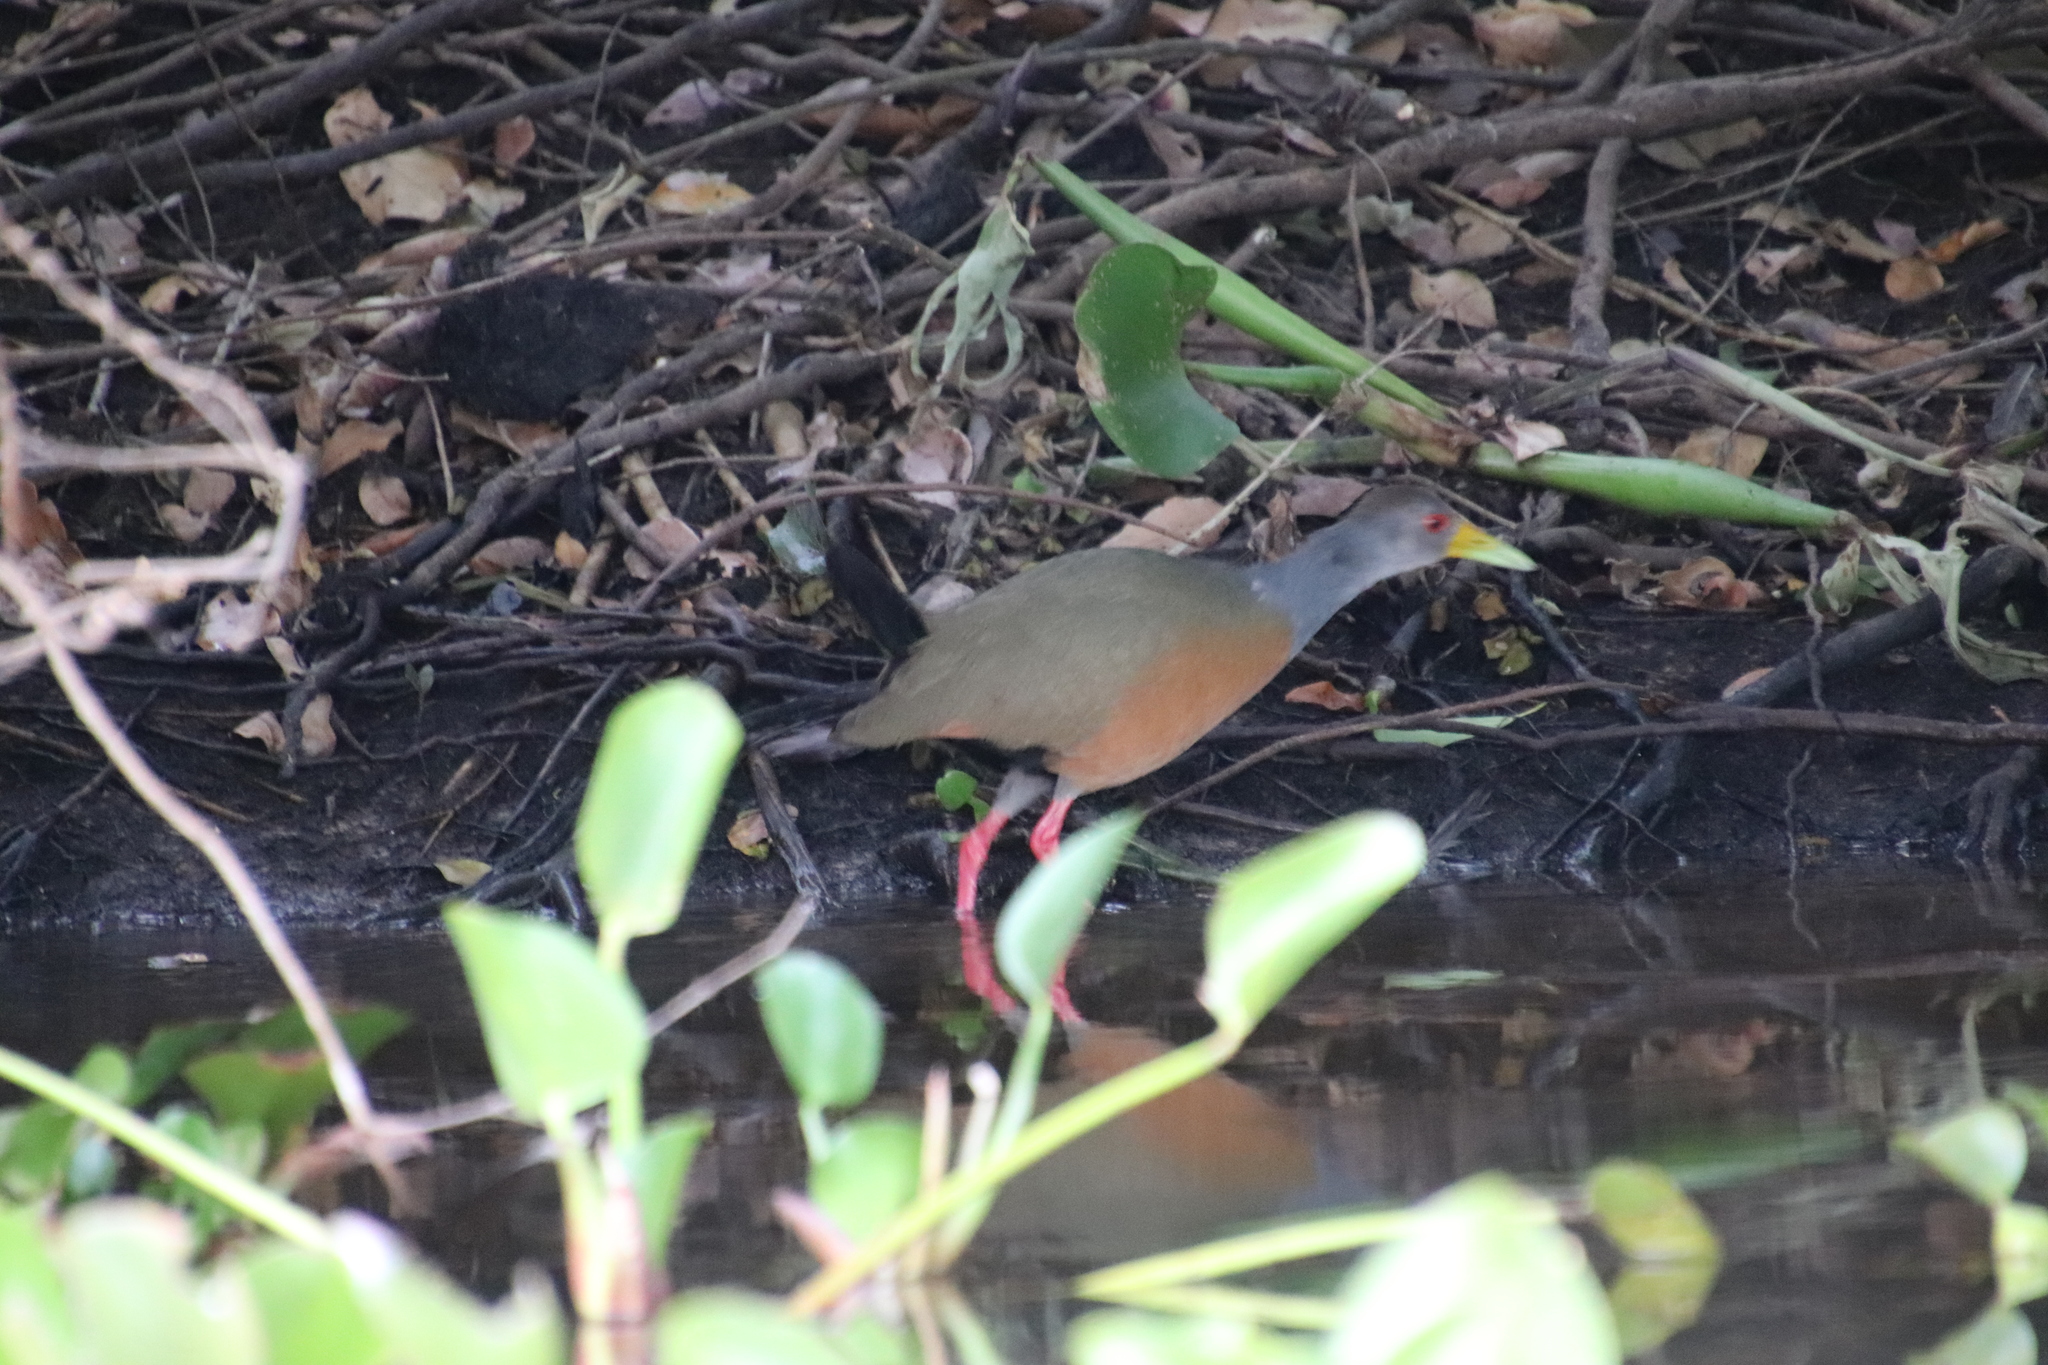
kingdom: Animalia
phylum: Chordata
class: Aves
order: Gruiformes
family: Rallidae
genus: Aramides
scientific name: Aramides cajanea
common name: Gray-necked wood-rail
